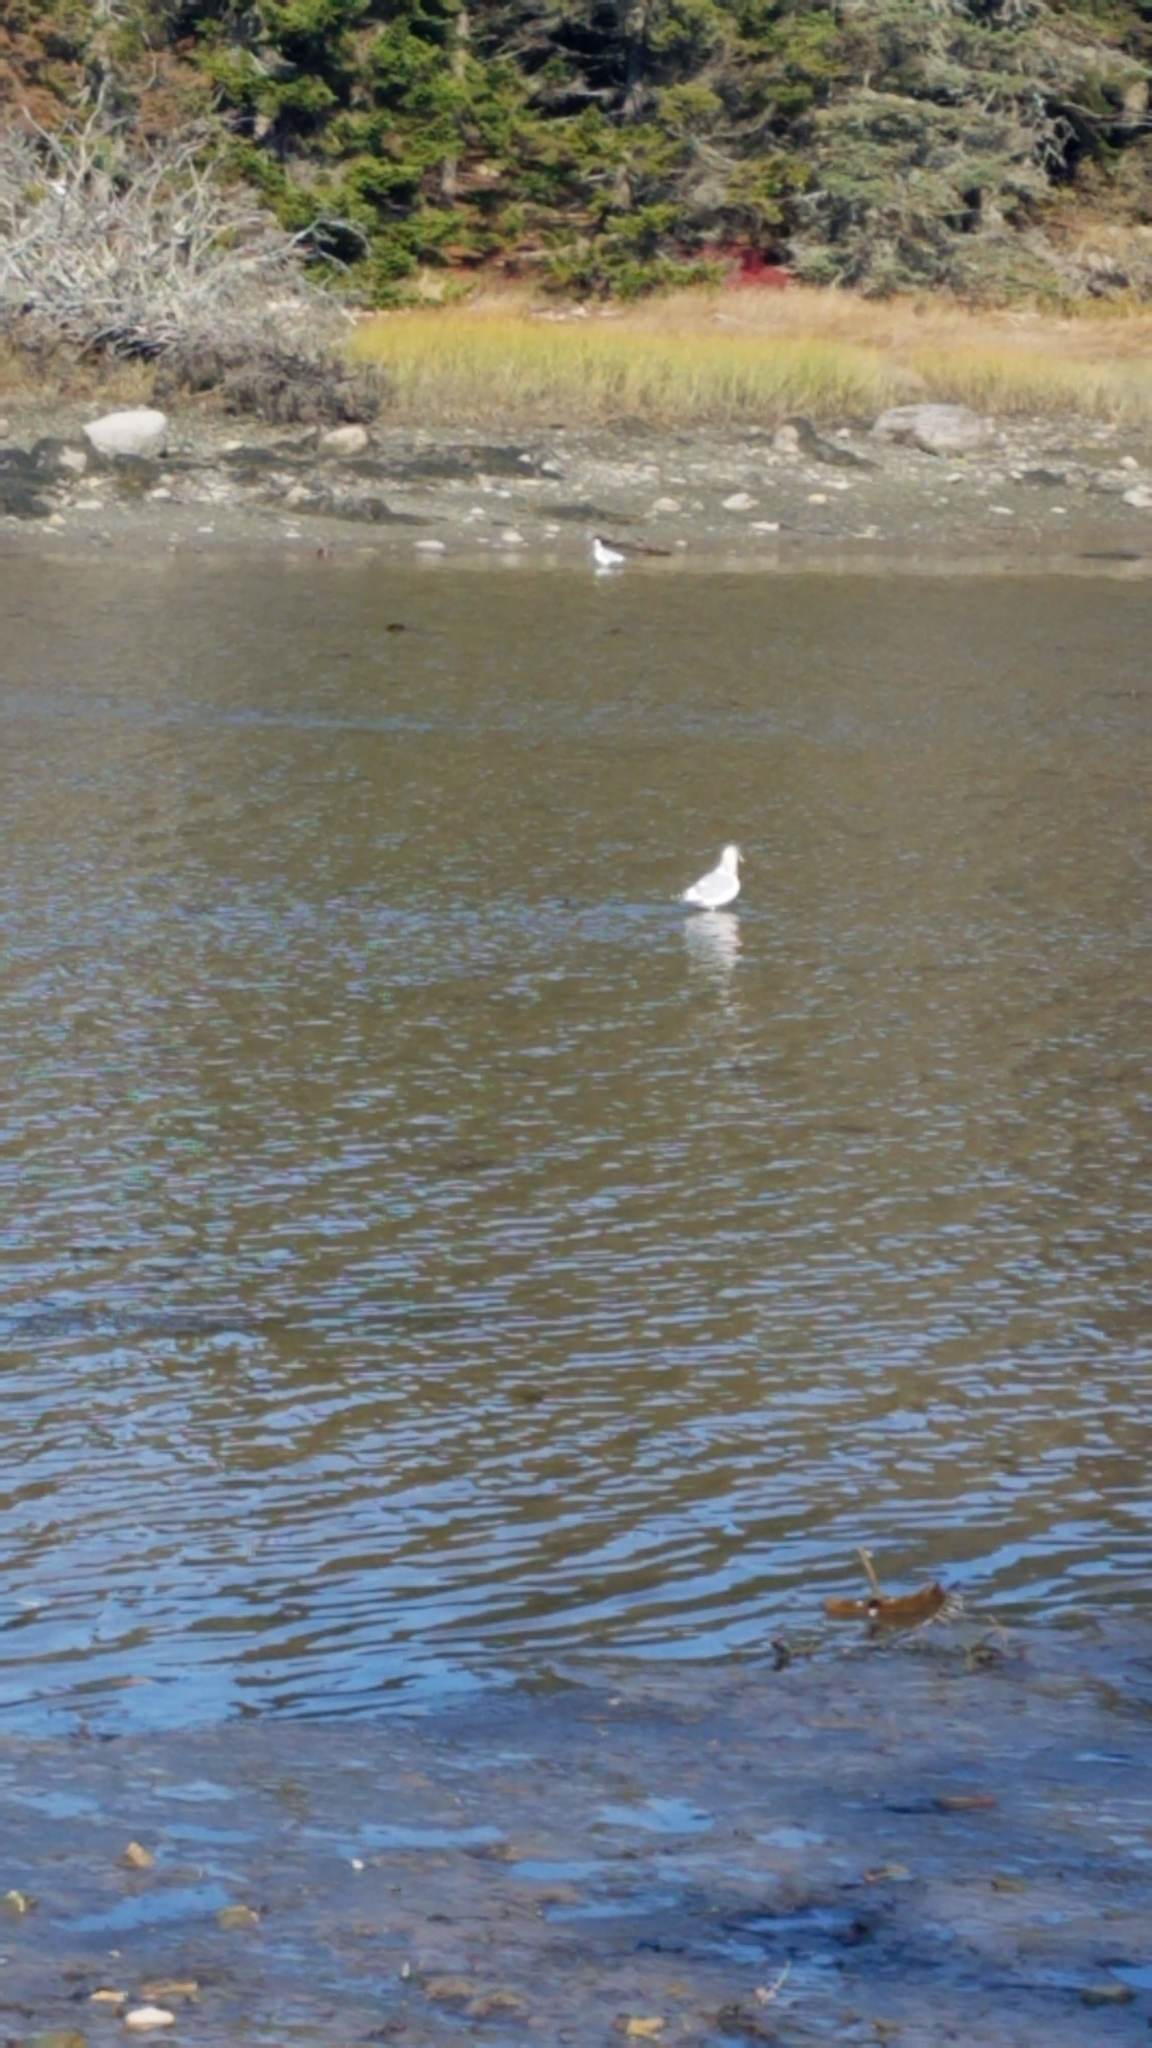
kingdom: Animalia
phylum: Chordata
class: Aves
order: Charadriiformes
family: Laridae
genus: Larus
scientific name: Larus argentatus
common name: Herring gull
